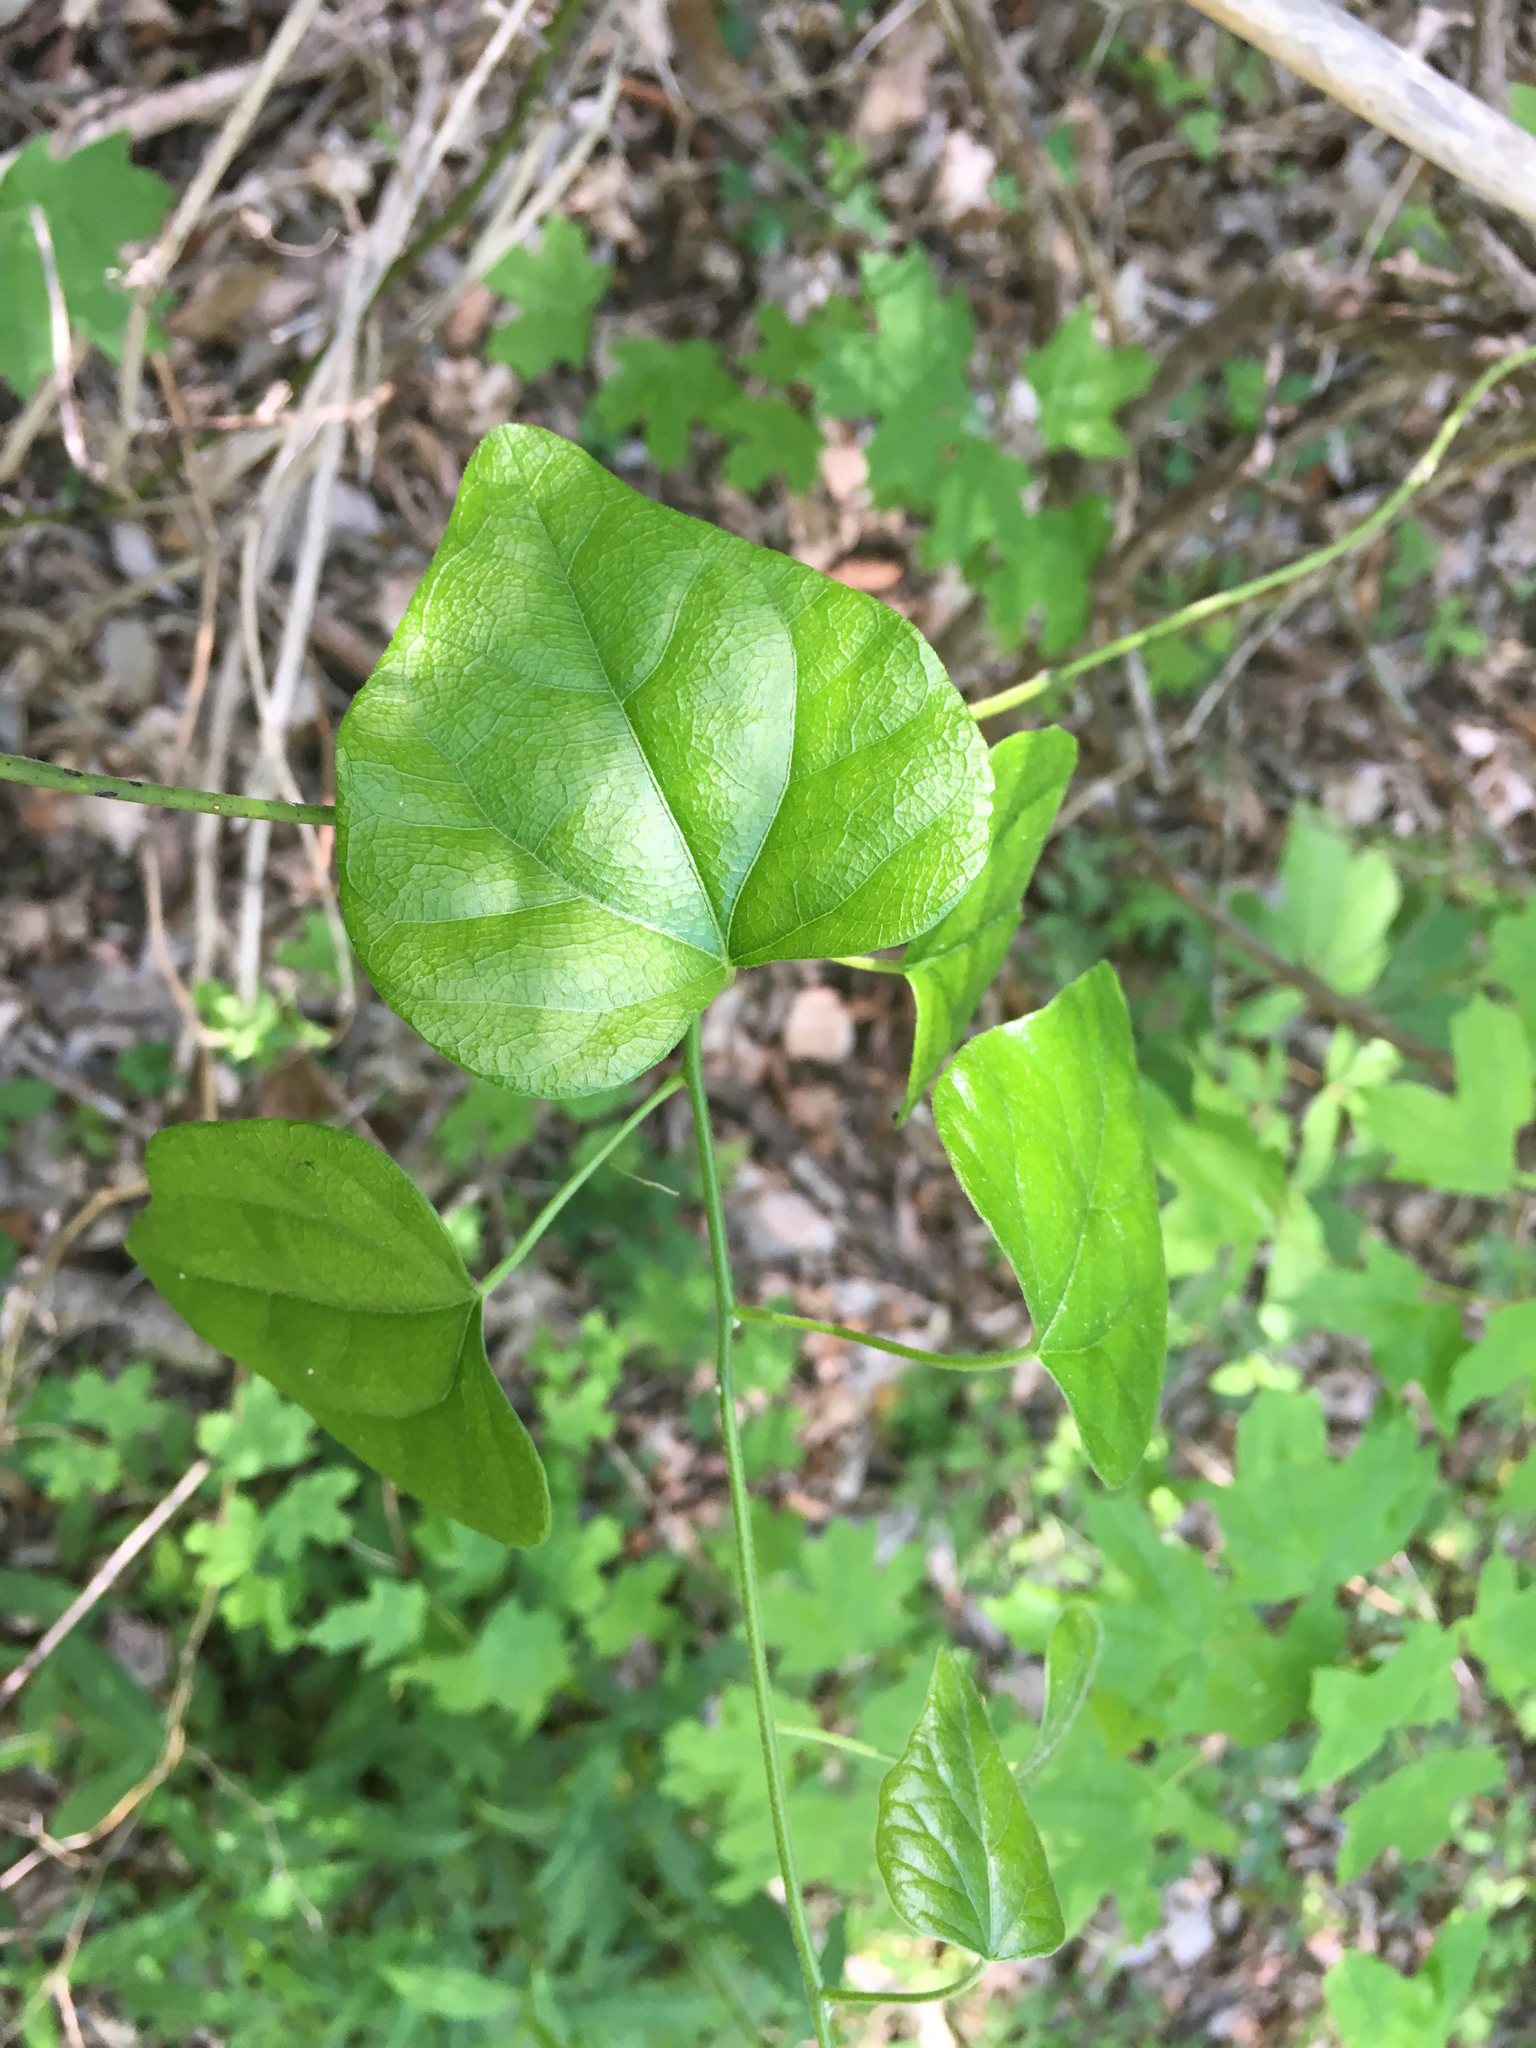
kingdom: Plantae
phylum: Tracheophyta
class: Magnoliopsida
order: Ranunculales
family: Menispermaceae
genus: Cocculus
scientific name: Cocculus carolinus
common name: Carolina moonseed
